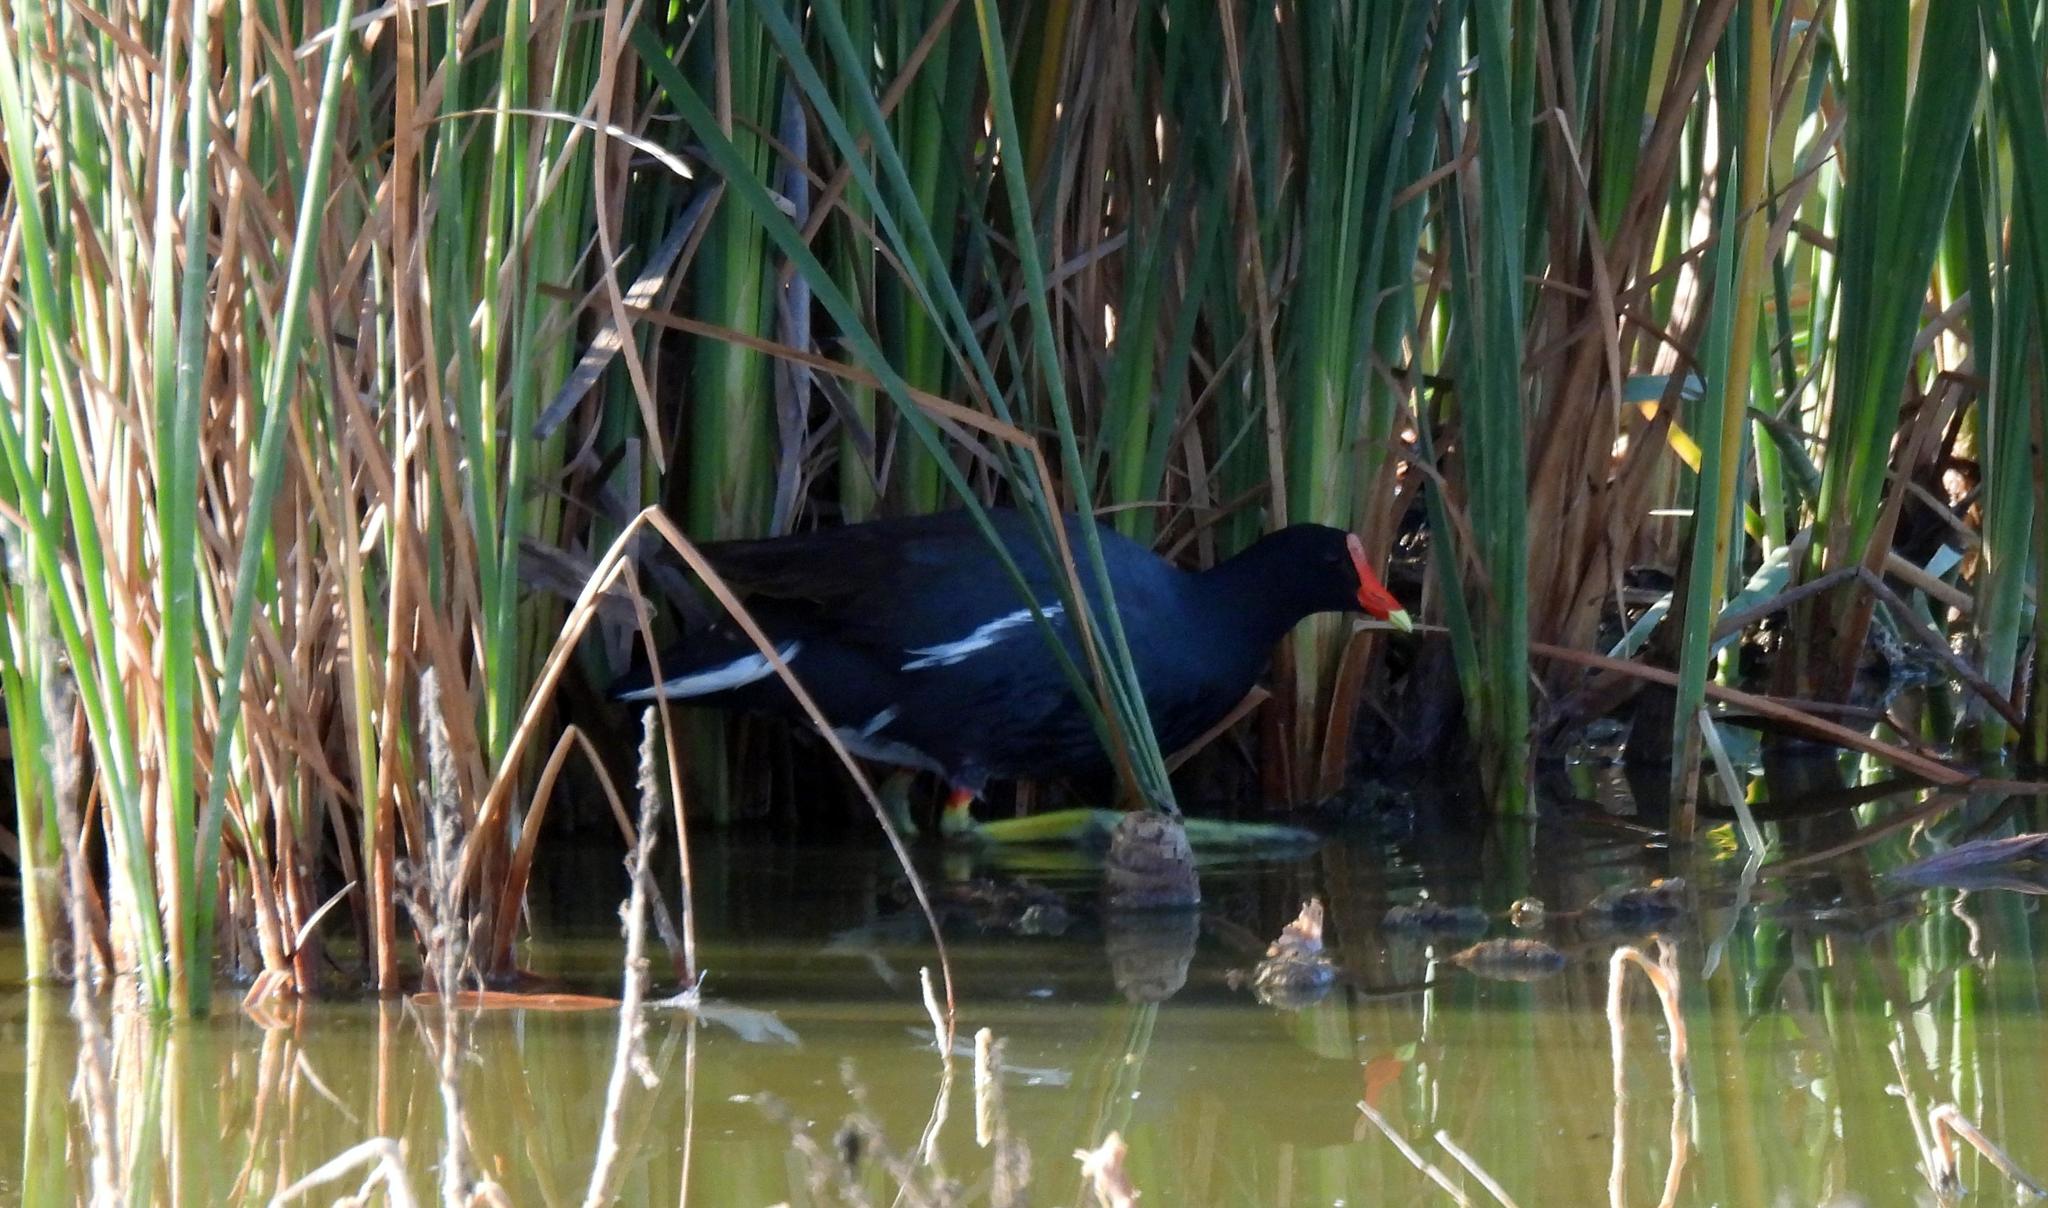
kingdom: Animalia
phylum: Chordata
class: Aves
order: Gruiformes
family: Rallidae
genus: Gallinula
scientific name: Gallinula chloropus
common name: Common moorhen
